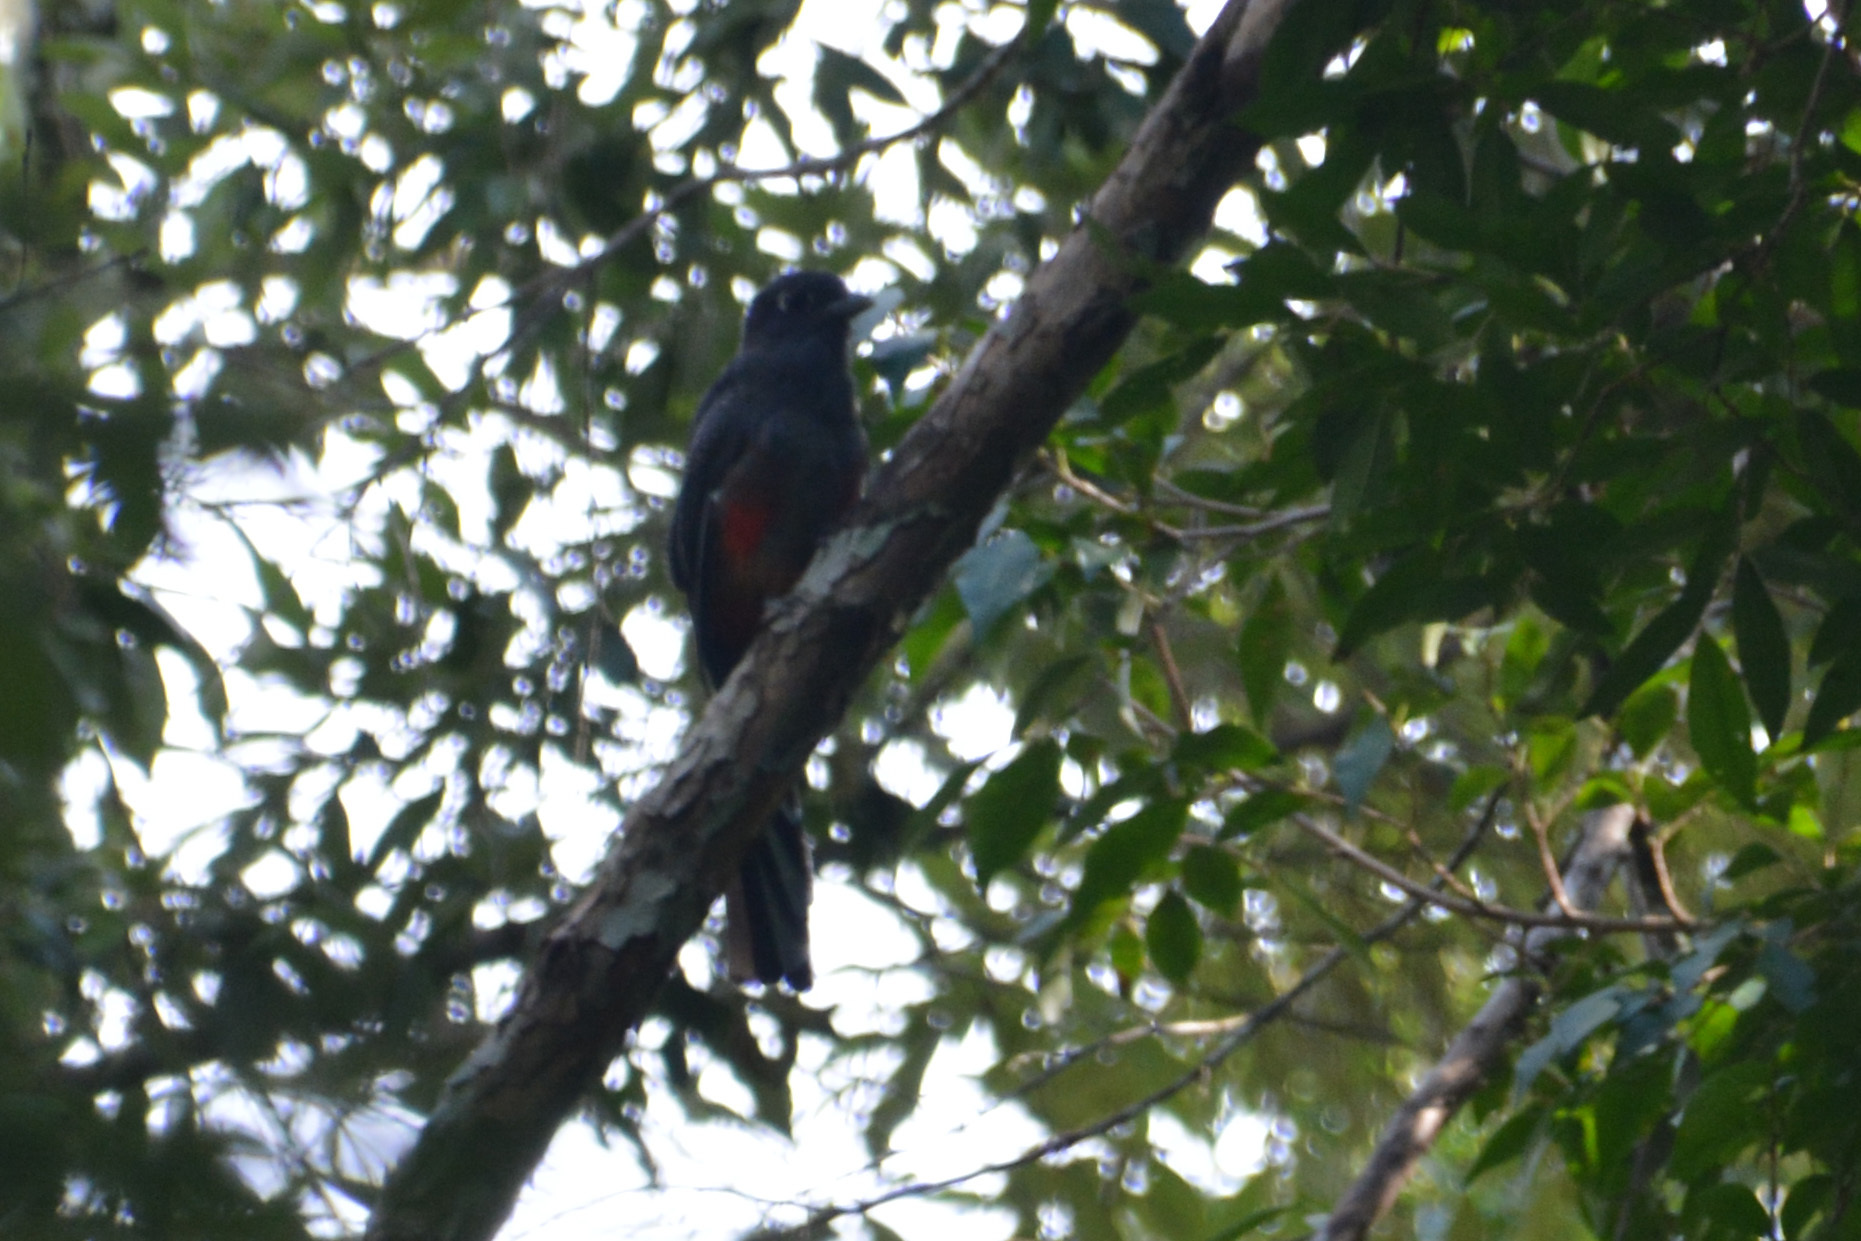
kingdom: Animalia
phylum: Chordata
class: Aves
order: Trogoniformes
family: Trogonidae
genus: Trogon
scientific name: Trogon surrucura
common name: Surucua trogon
